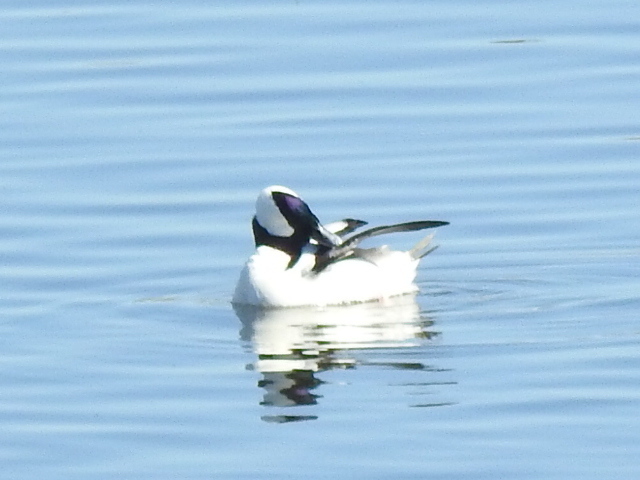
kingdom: Animalia
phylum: Chordata
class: Aves
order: Anseriformes
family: Anatidae
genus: Bucephala
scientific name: Bucephala albeola
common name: Bufflehead
